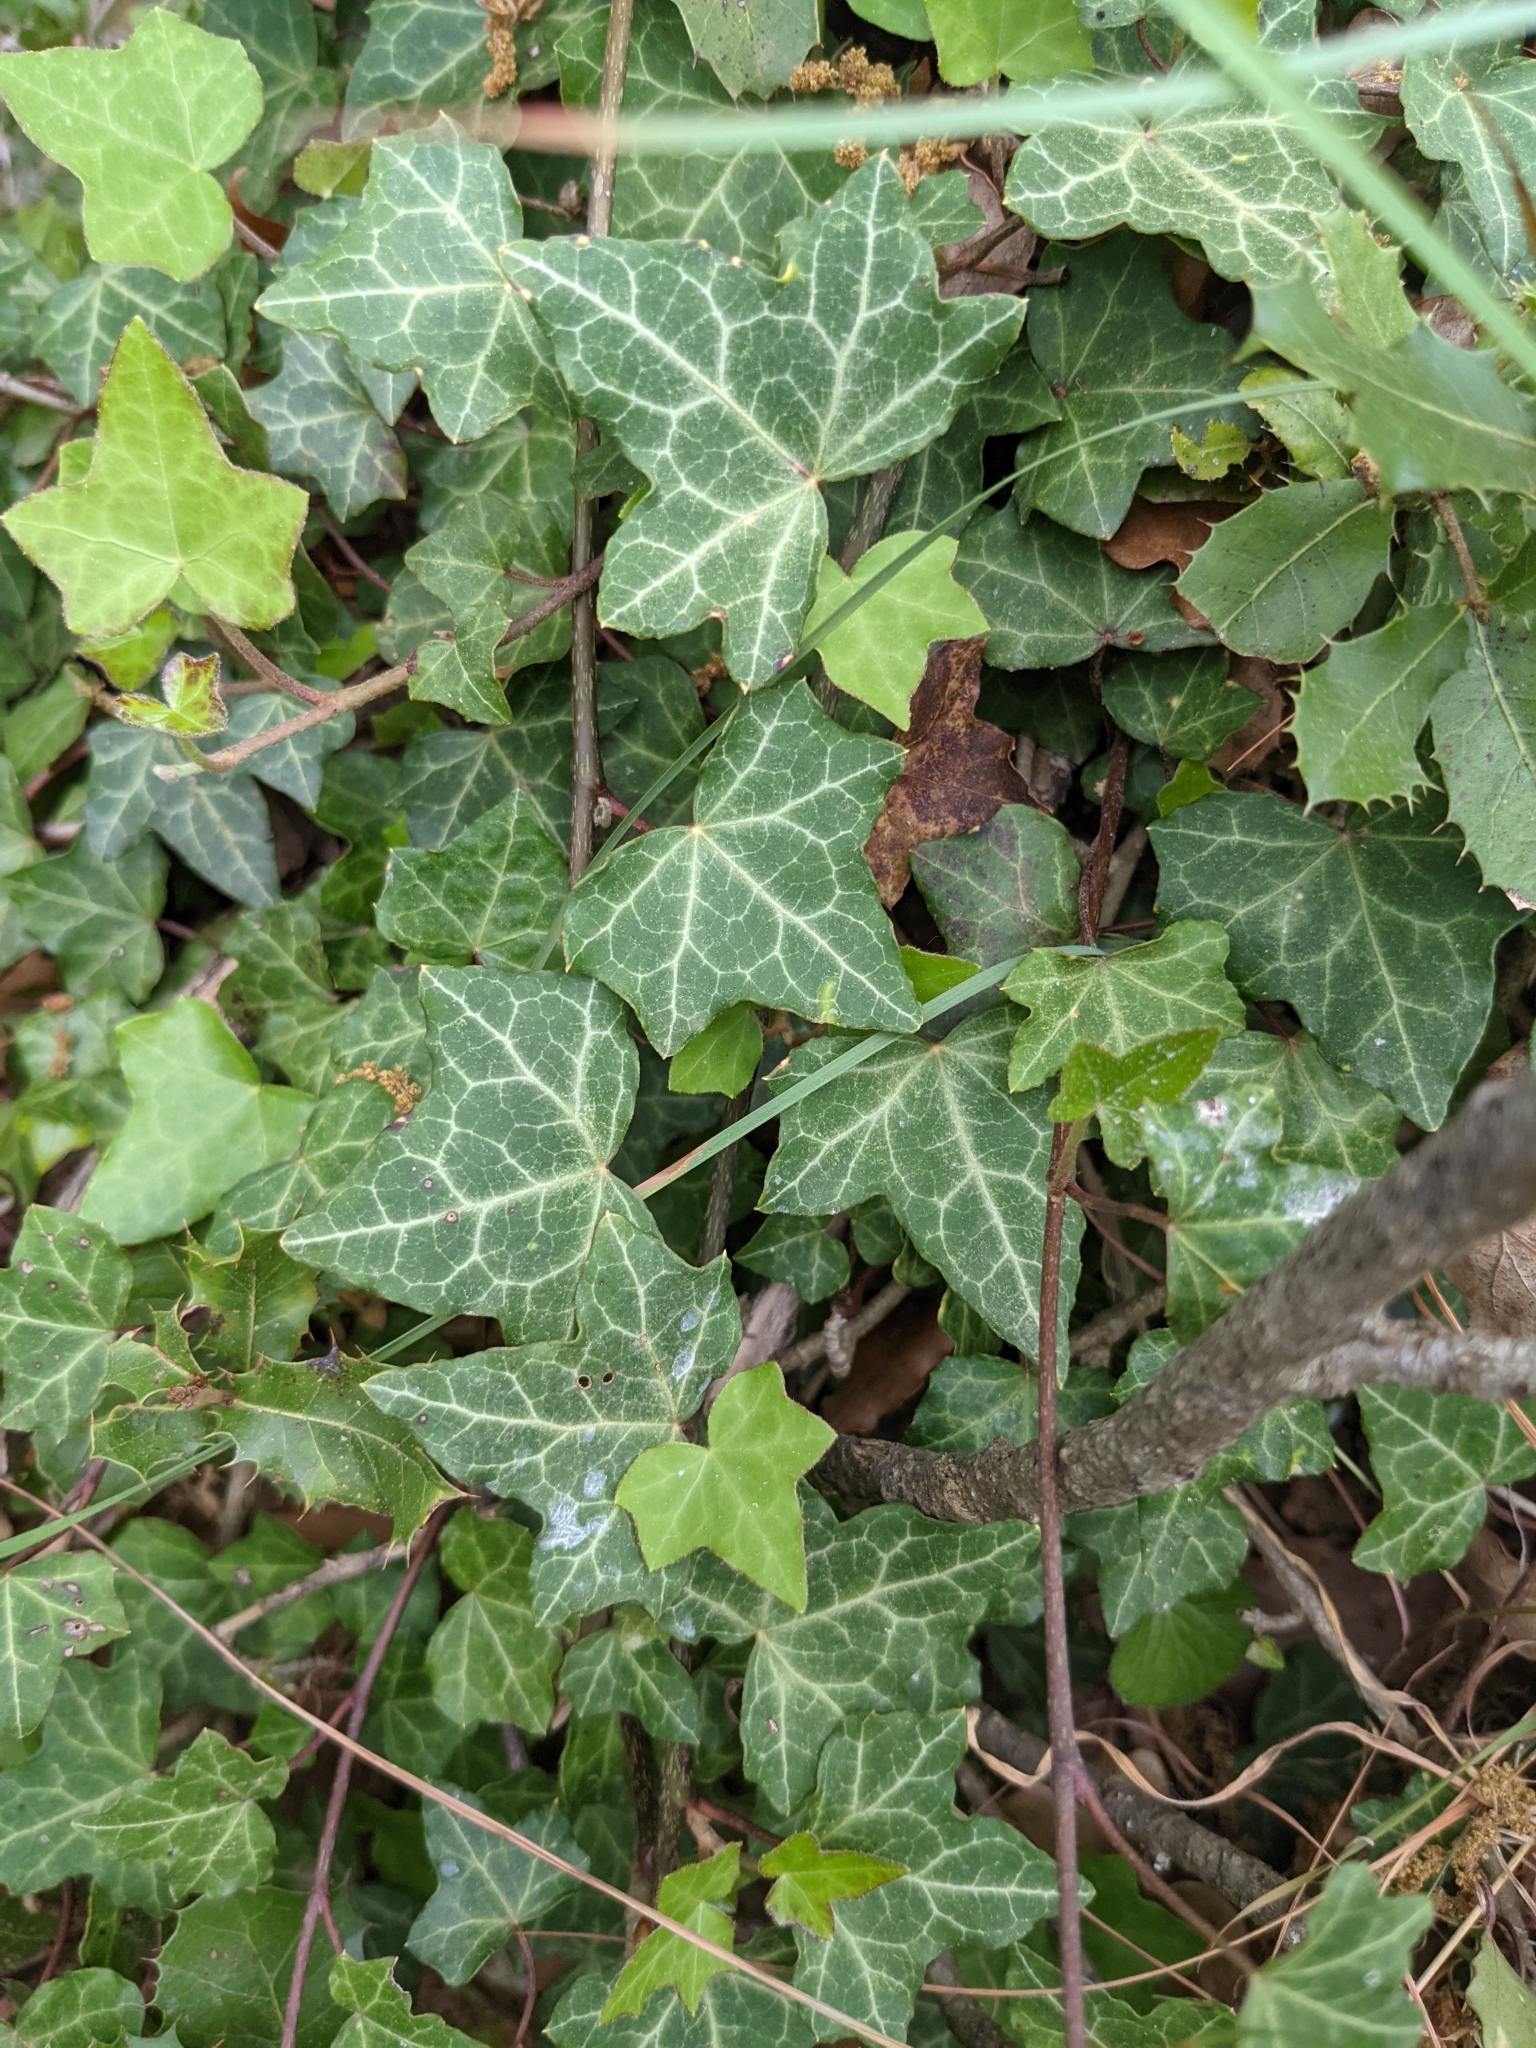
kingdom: Plantae
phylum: Tracheophyta
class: Magnoliopsida
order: Apiales
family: Araliaceae
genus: Hedera
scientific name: Hedera helix
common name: Ivy
